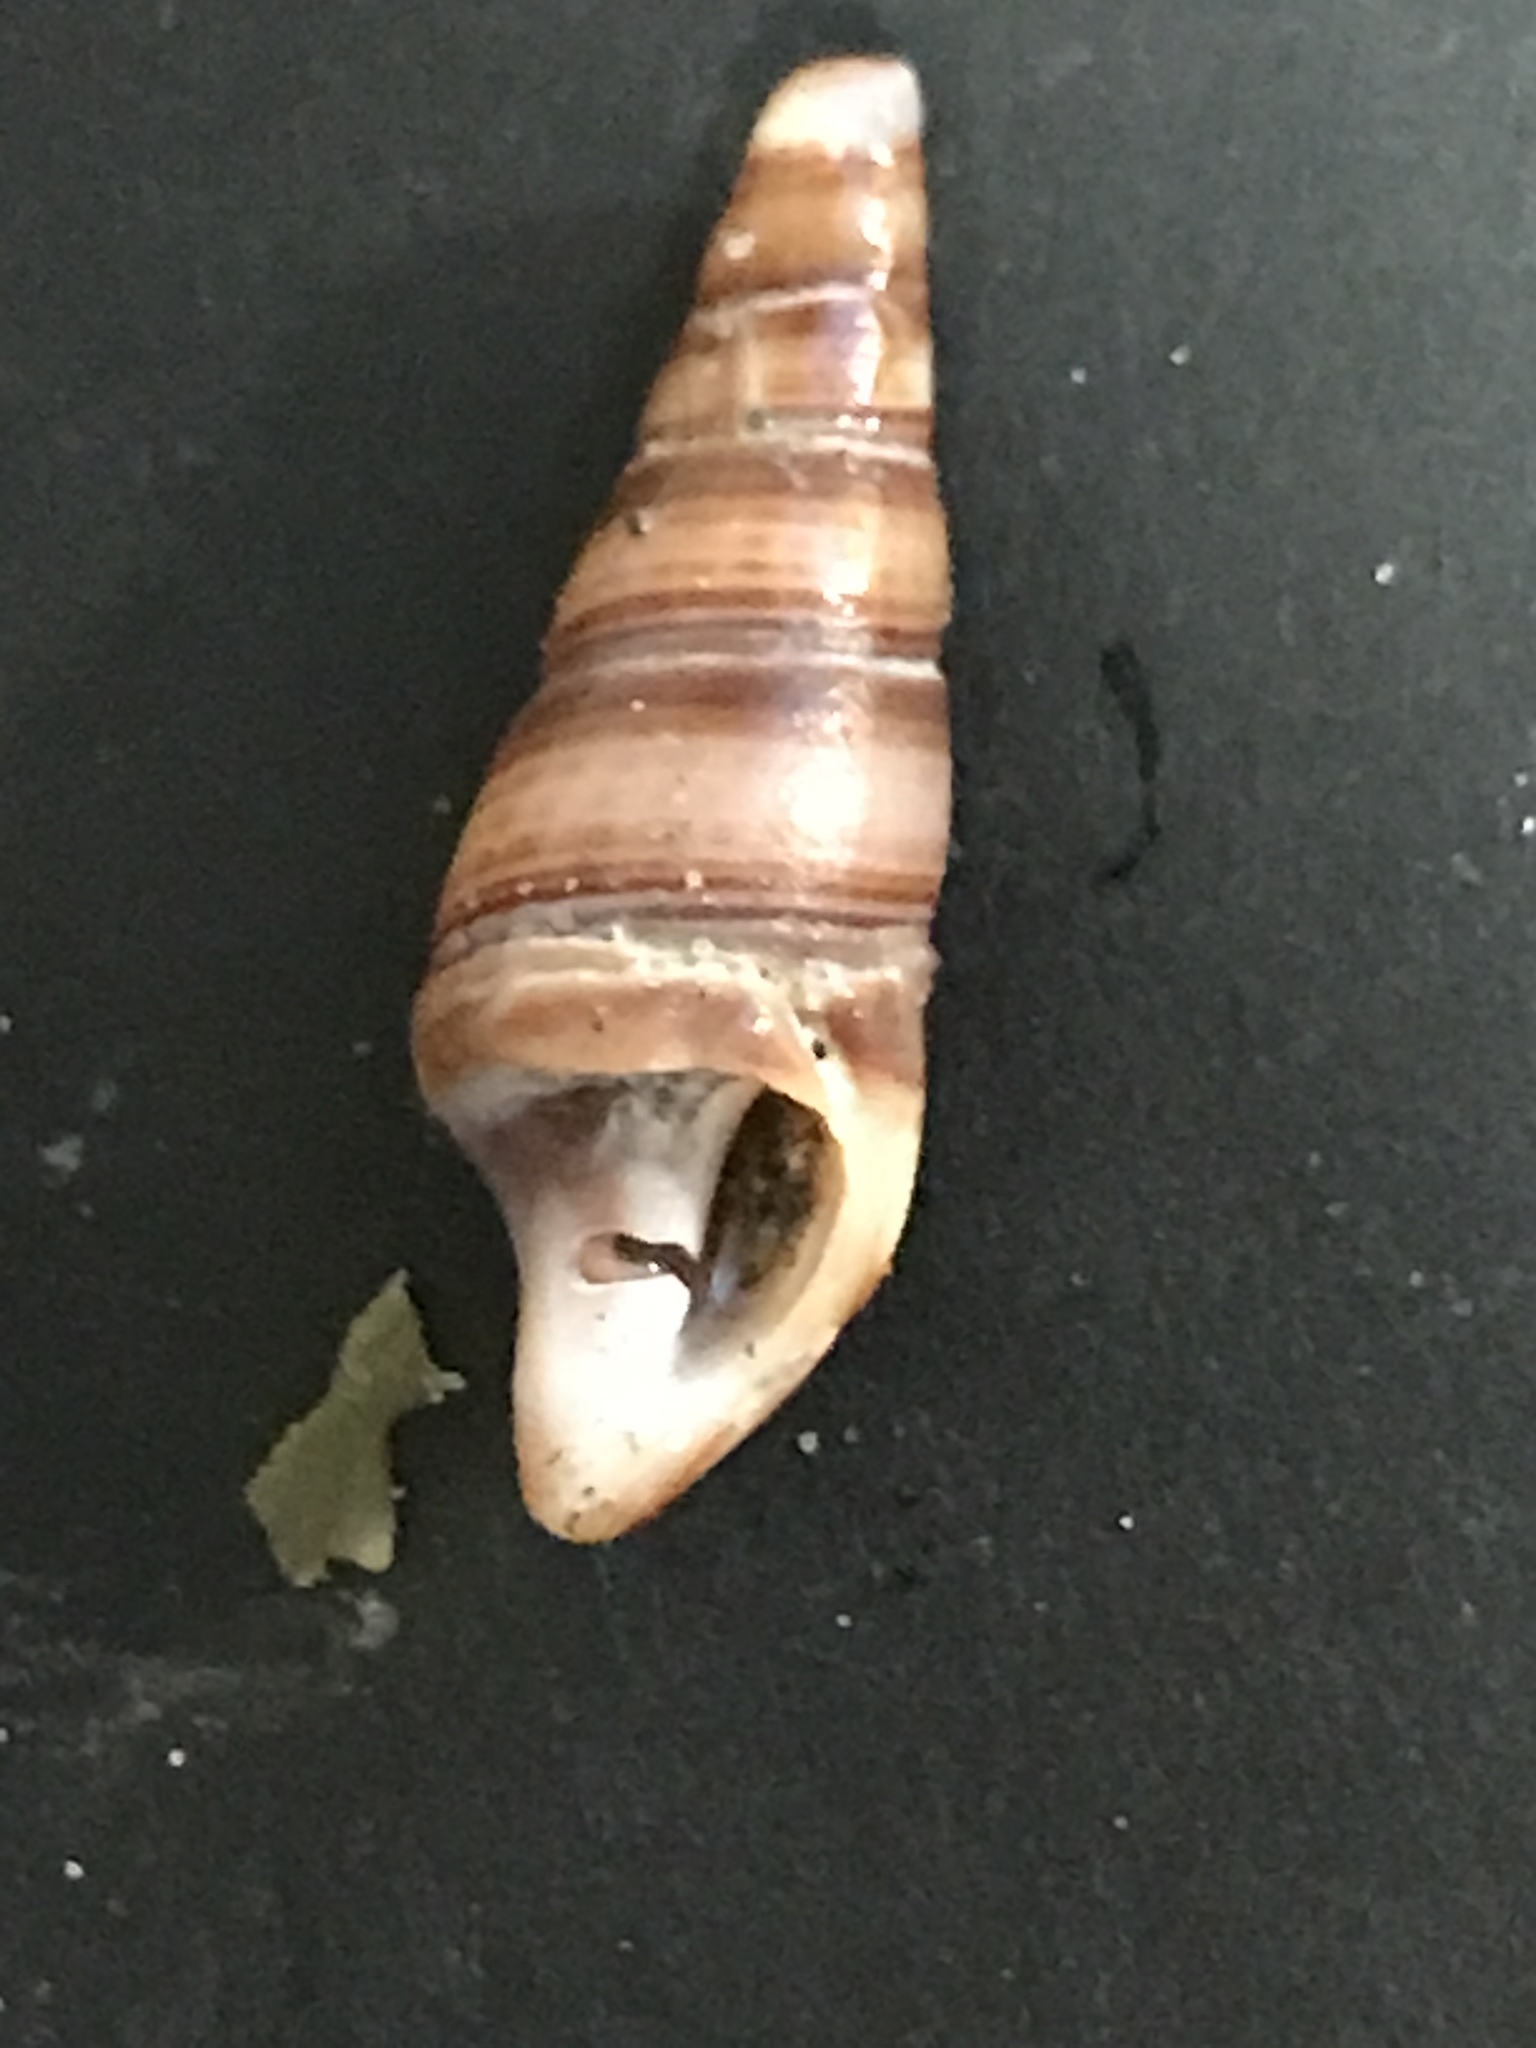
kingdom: Animalia
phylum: Mollusca
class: Gastropoda
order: Neogastropoda
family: Borsoniidae
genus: Ophiodermella
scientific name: Ophiodermella inermis
